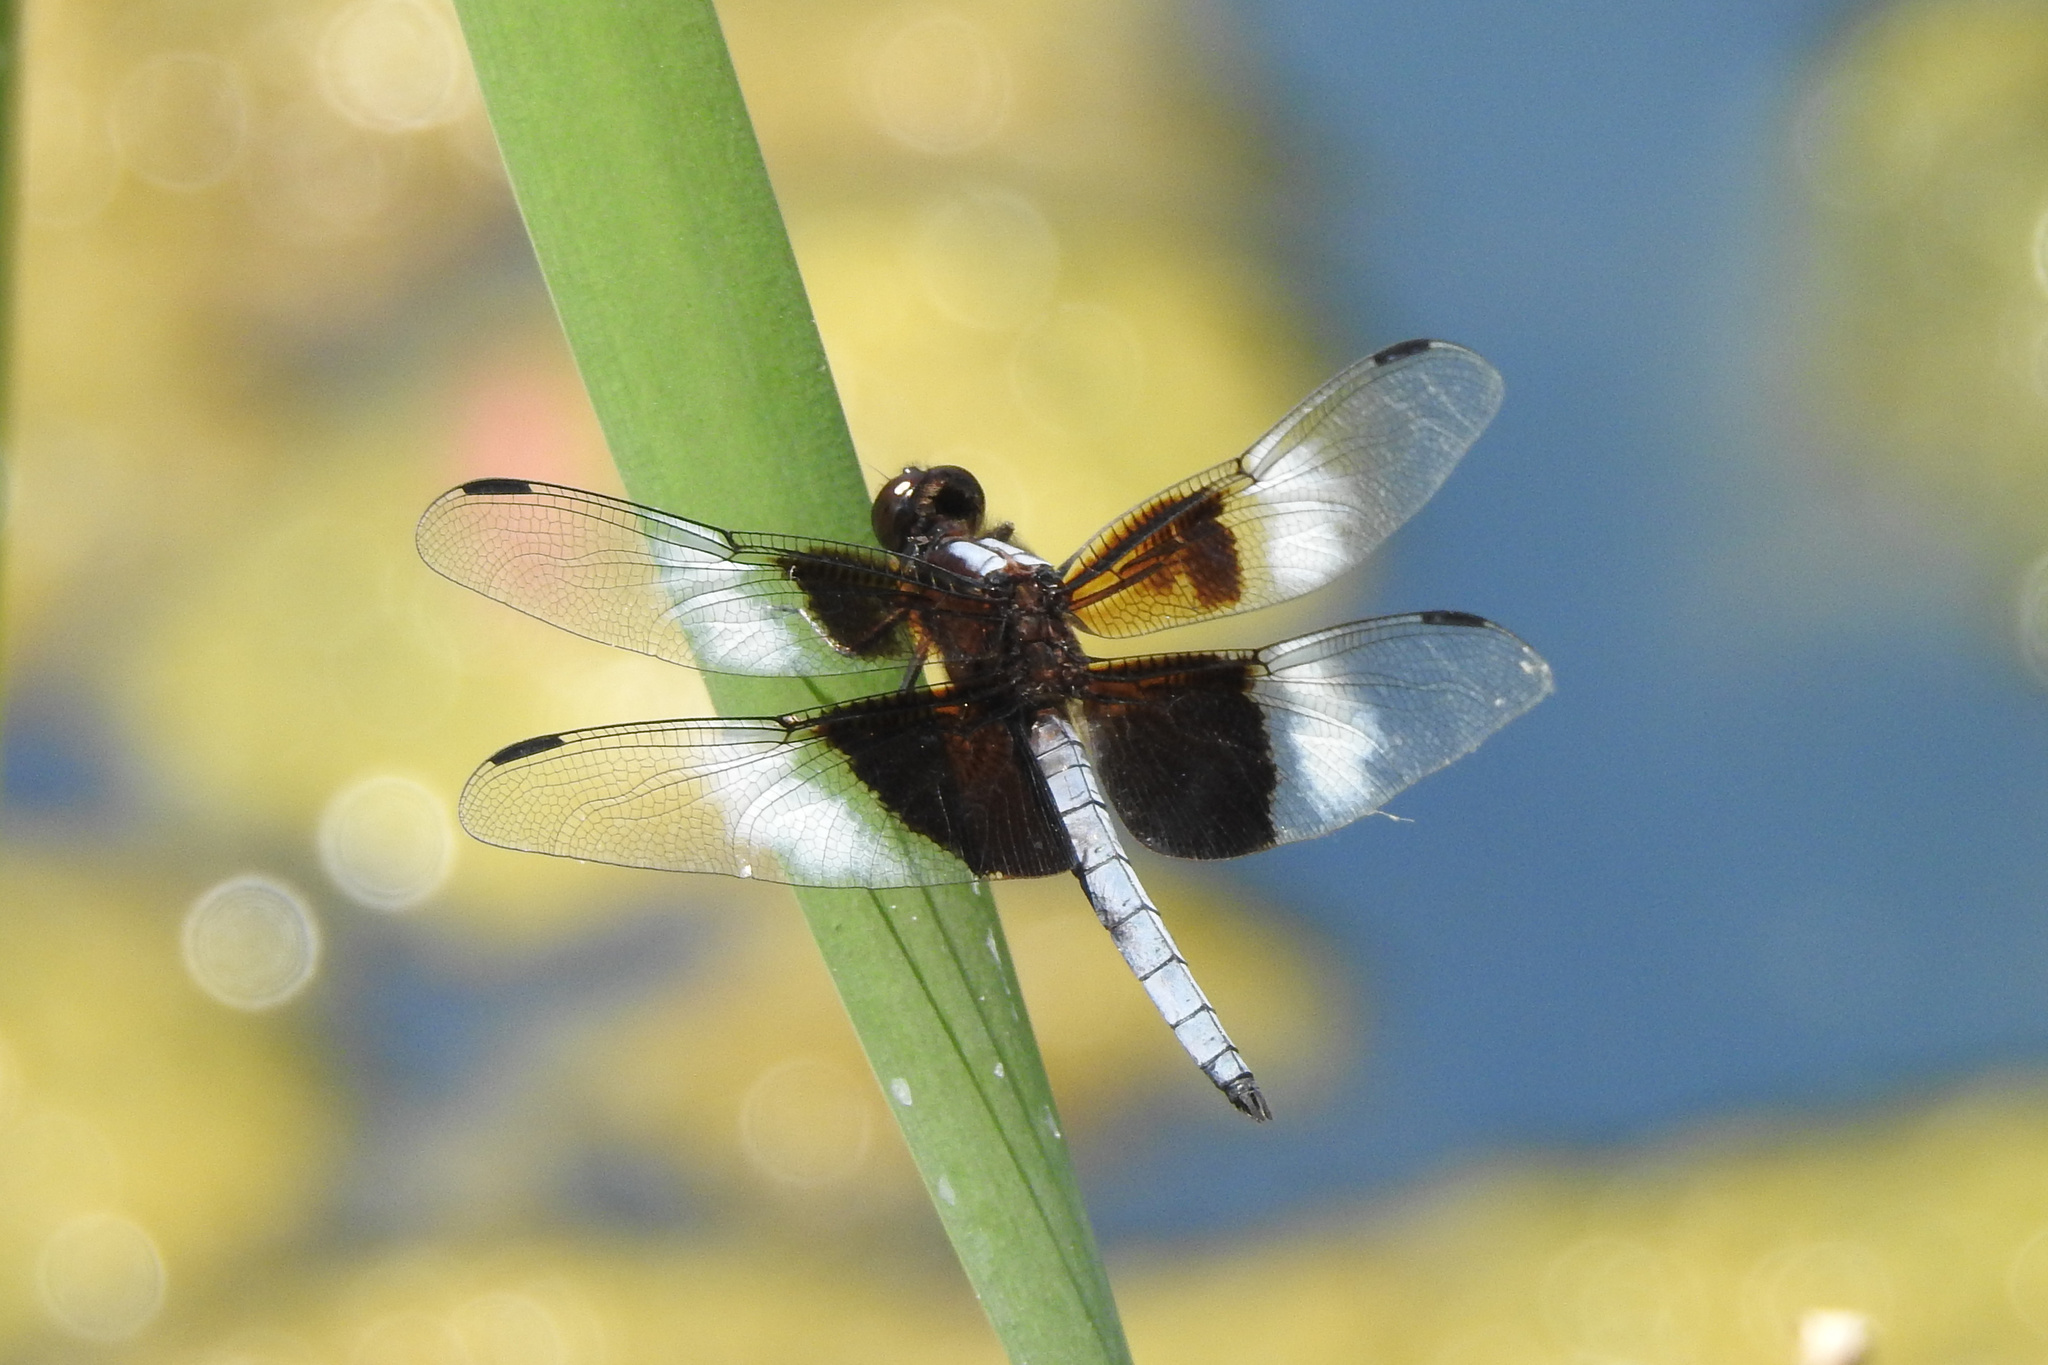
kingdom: Animalia
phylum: Arthropoda
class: Insecta
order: Odonata
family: Libellulidae
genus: Libellula
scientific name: Libellula luctuosa
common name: Widow skimmer
